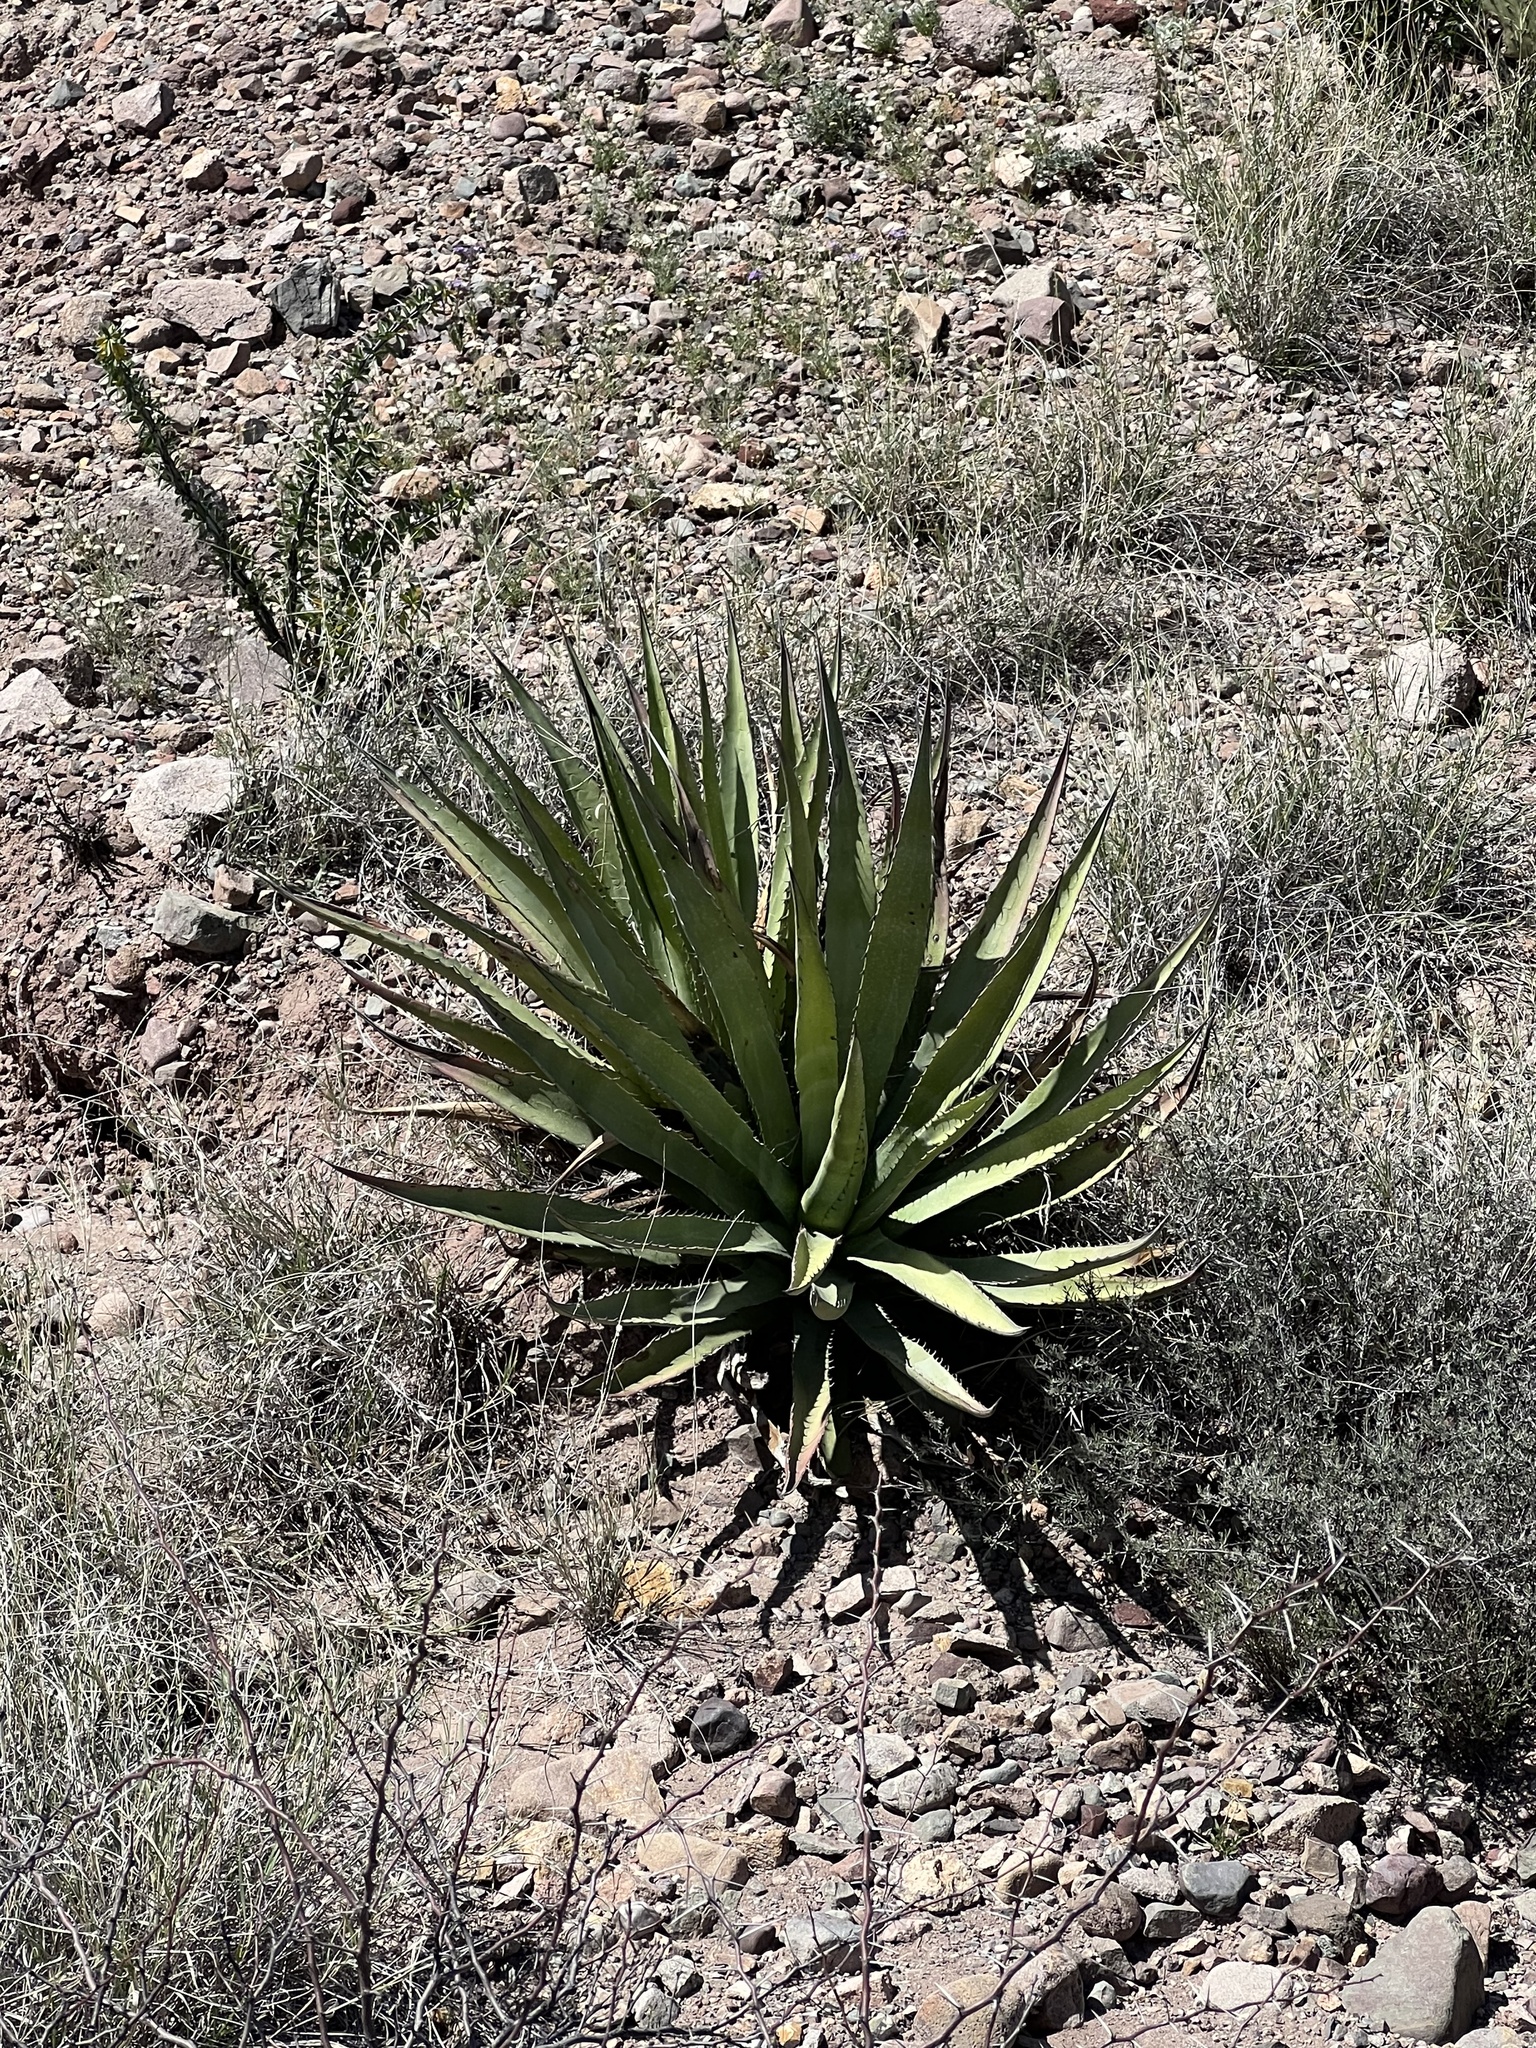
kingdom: Plantae
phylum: Tracheophyta
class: Liliopsida
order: Asparagales
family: Asparagaceae
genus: Agave
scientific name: Agave palmeri
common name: Palmer agave
